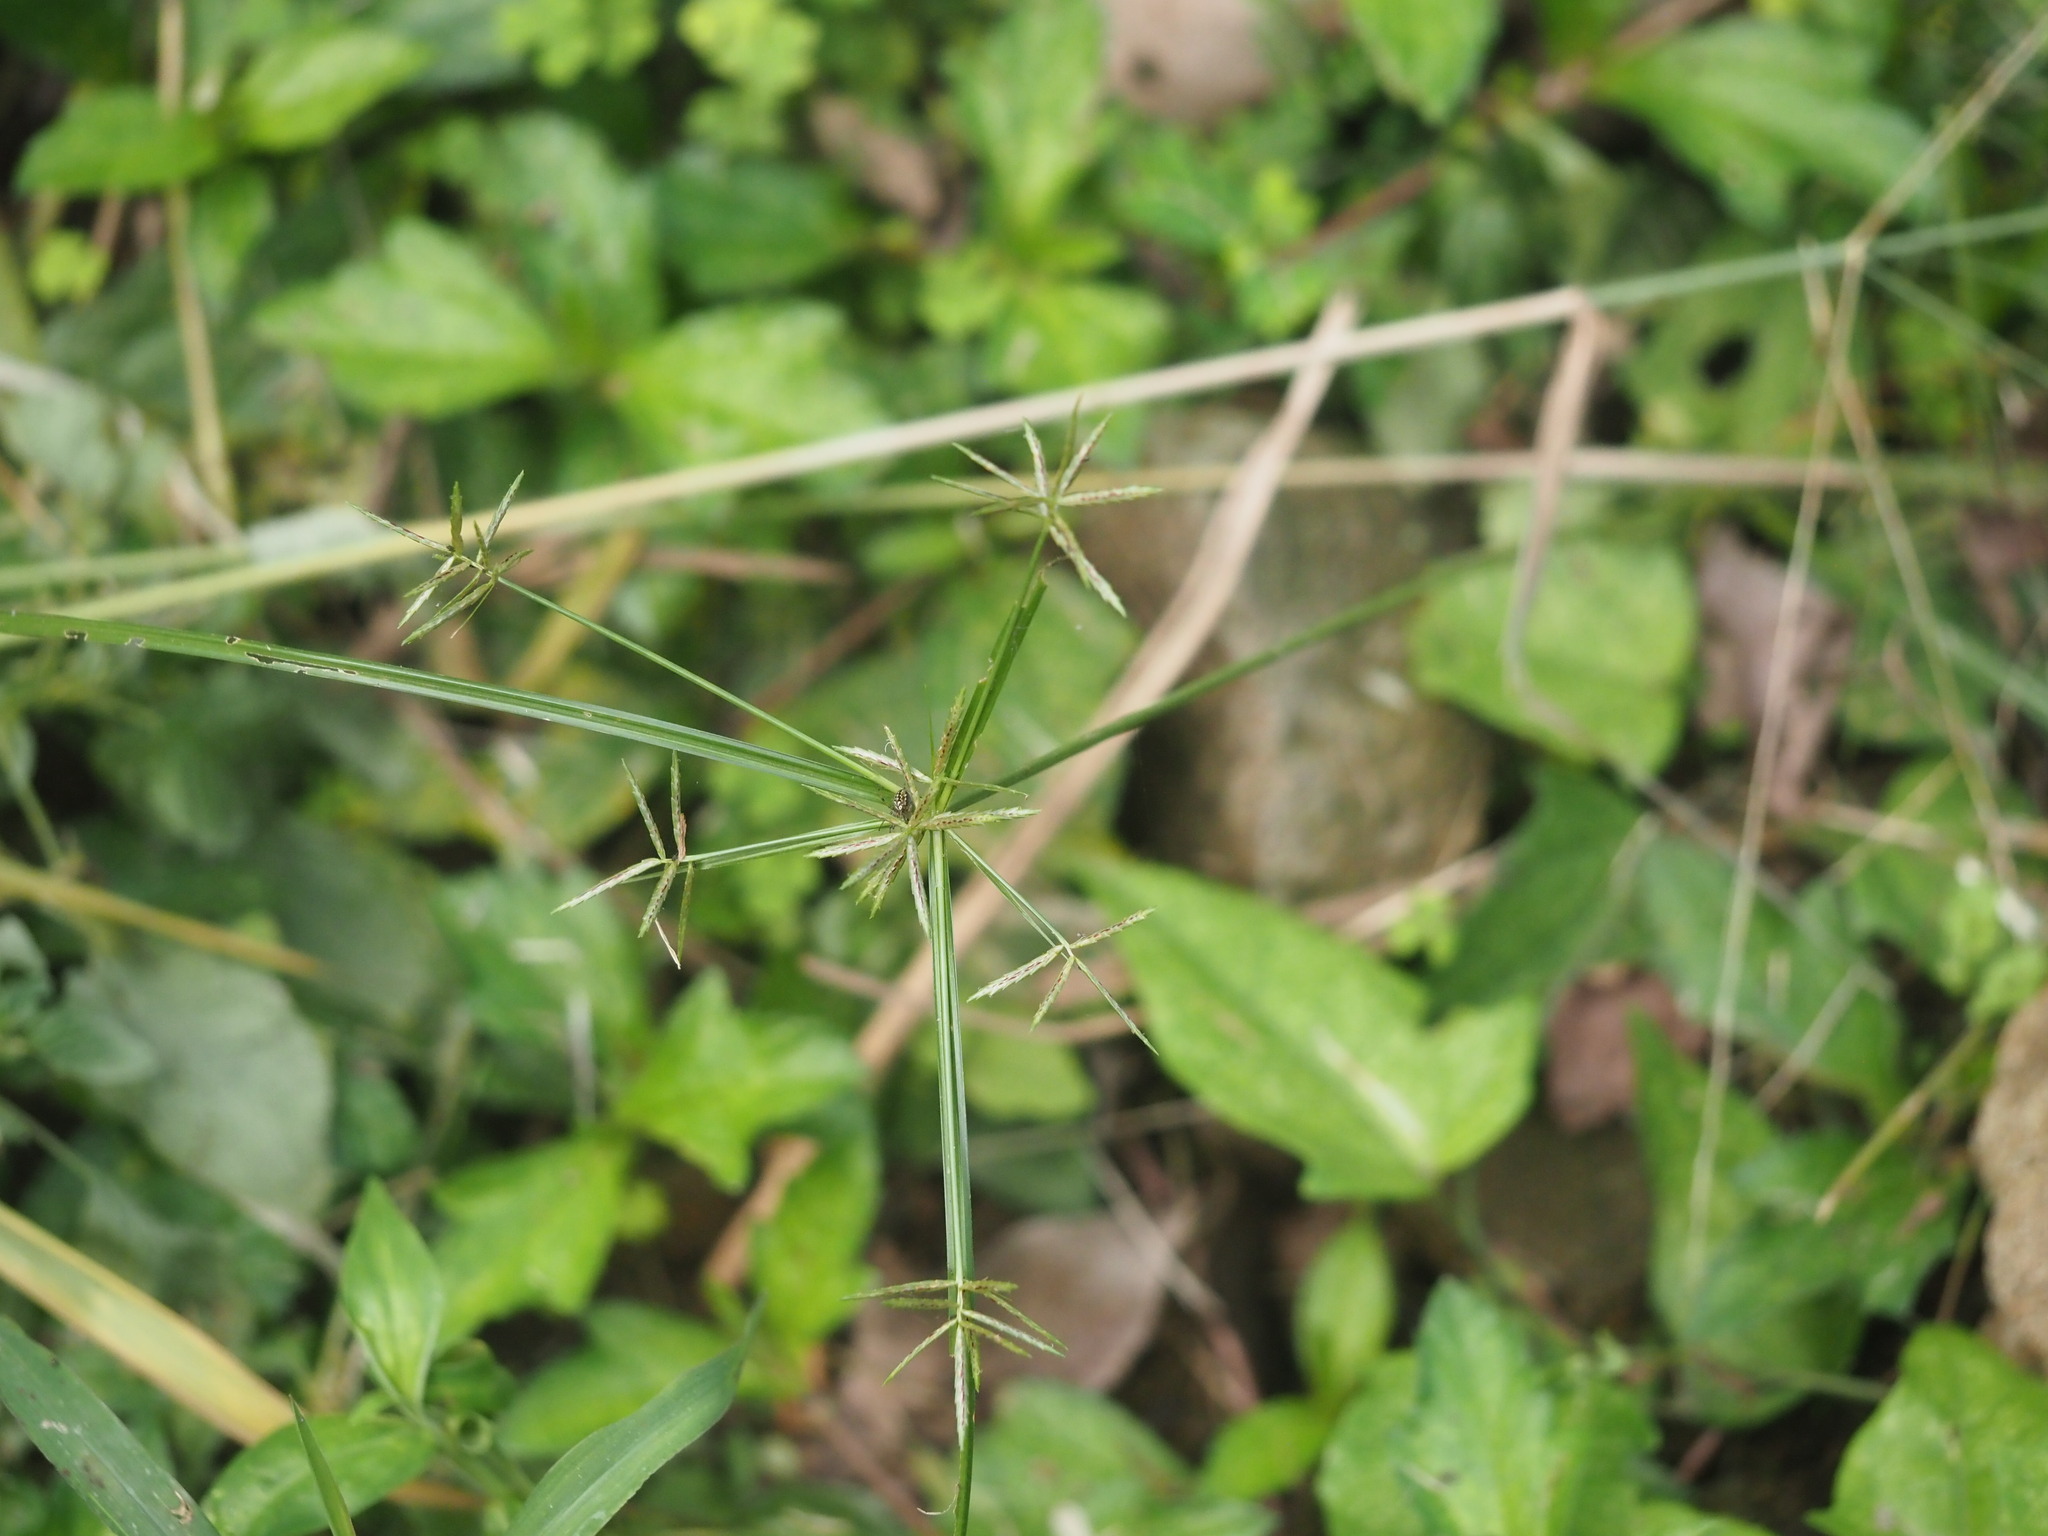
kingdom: Plantae
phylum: Tracheophyta
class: Liliopsida
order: Poales
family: Cyperaceae
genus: Cyperus
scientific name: Cyperus sphacelatus
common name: Roadside flatsedge
